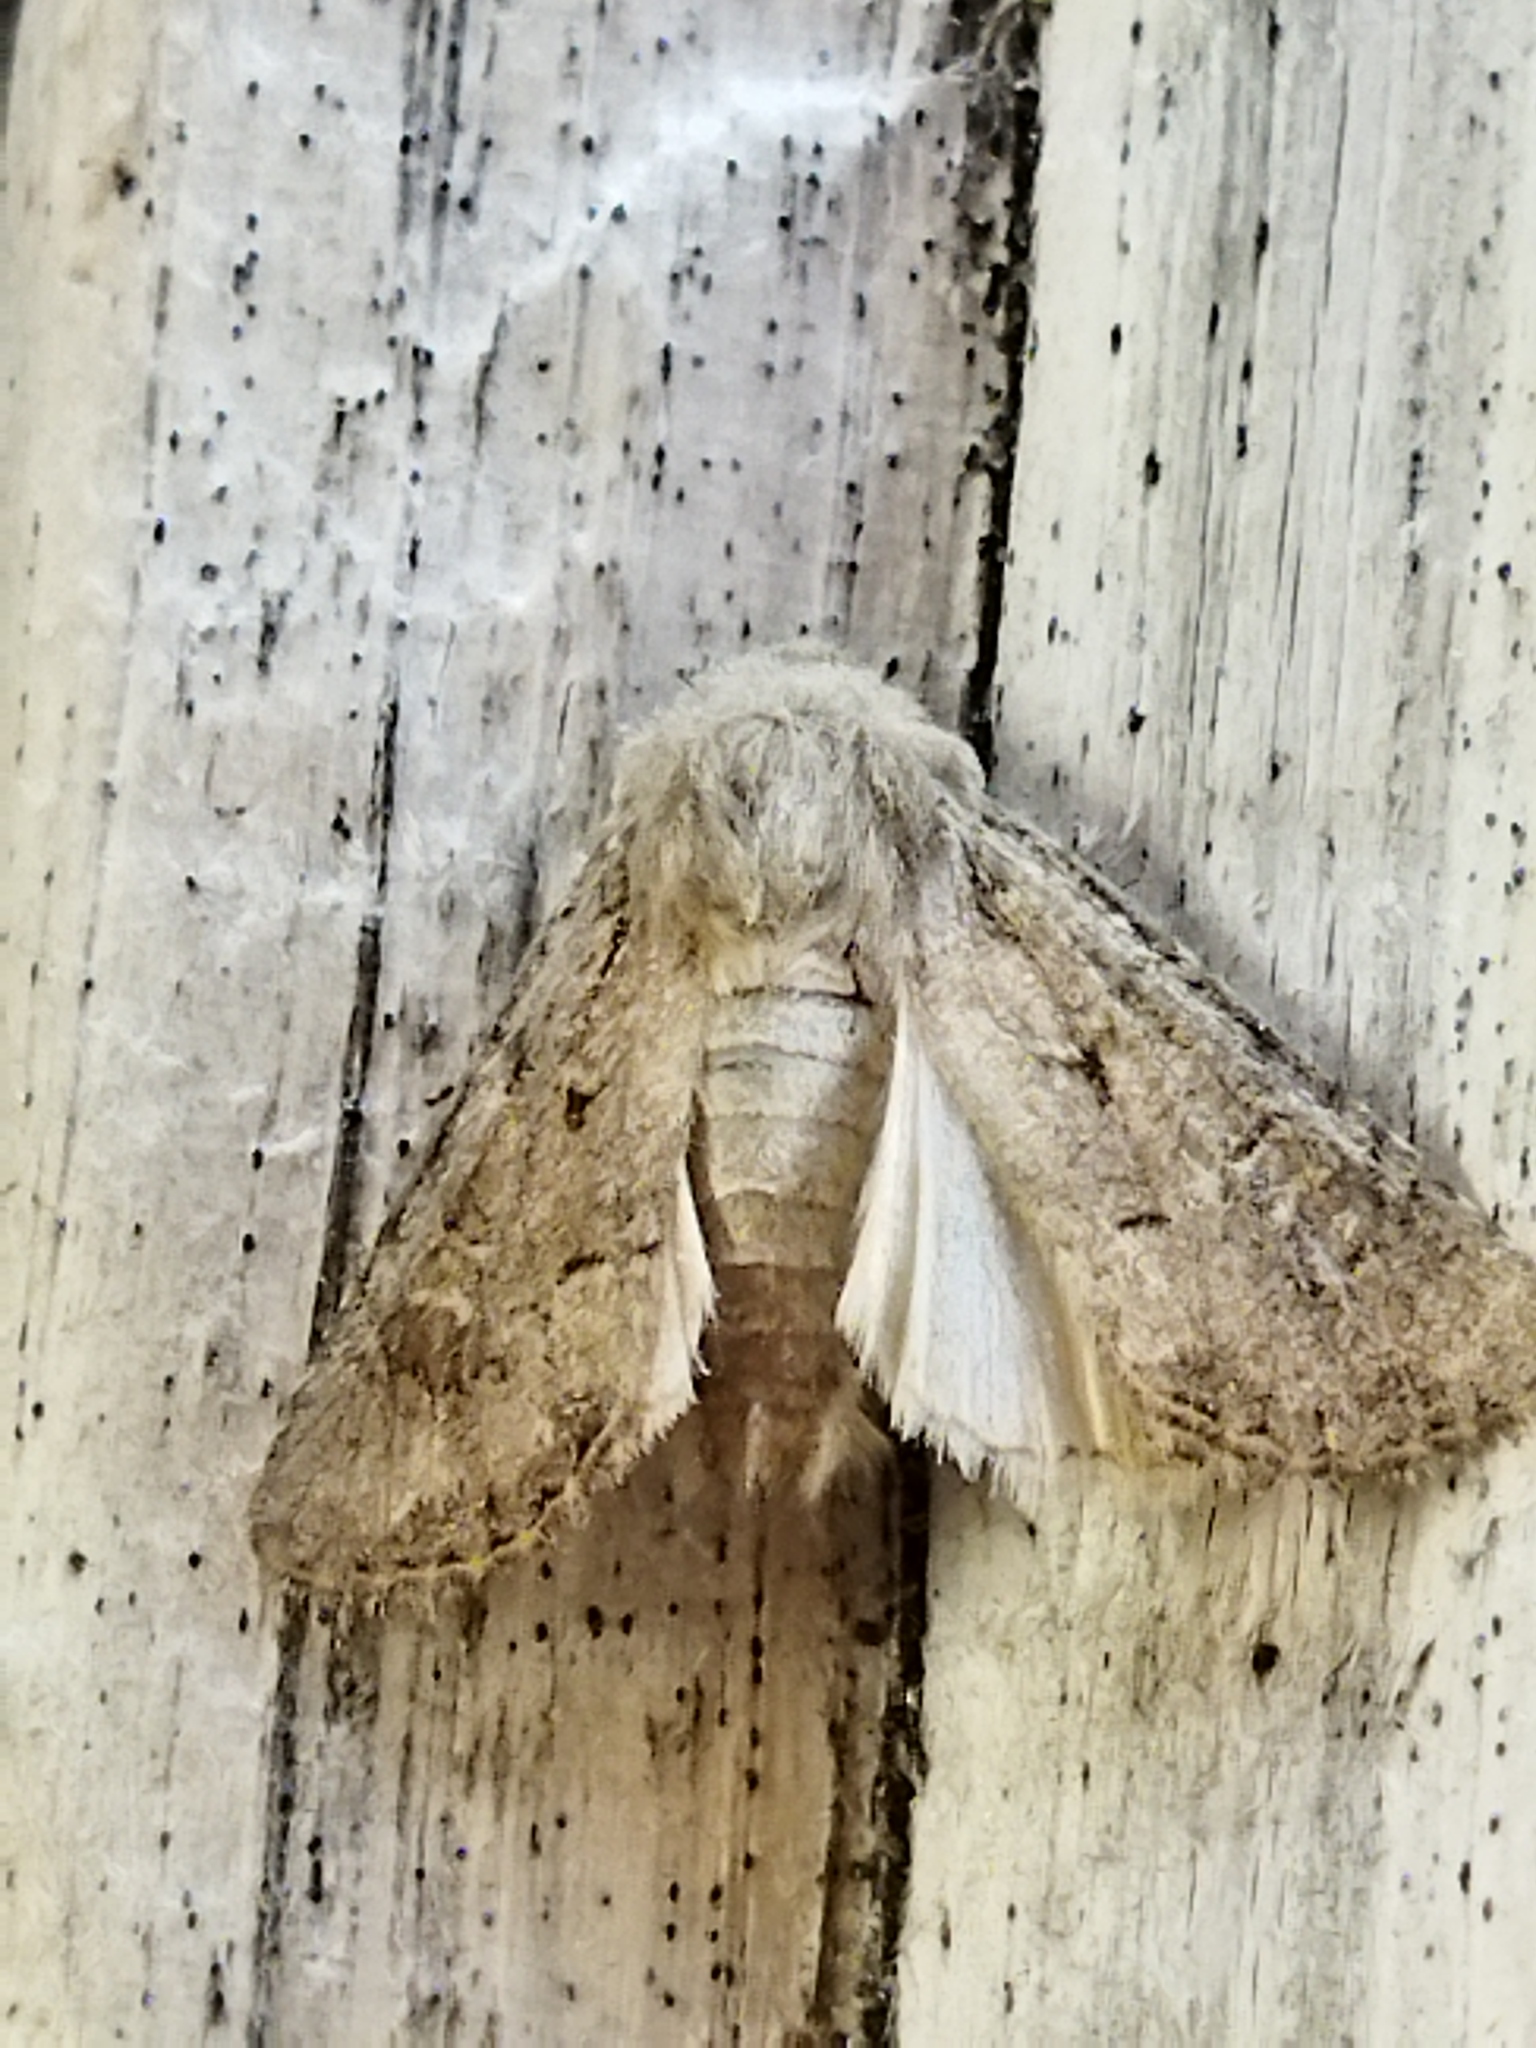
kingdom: Animalia
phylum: Arthropoda
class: Insecta
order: Lepidoptera
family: Noctuidae
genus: Luperina
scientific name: Luperina testacea
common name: Flounced rustic
